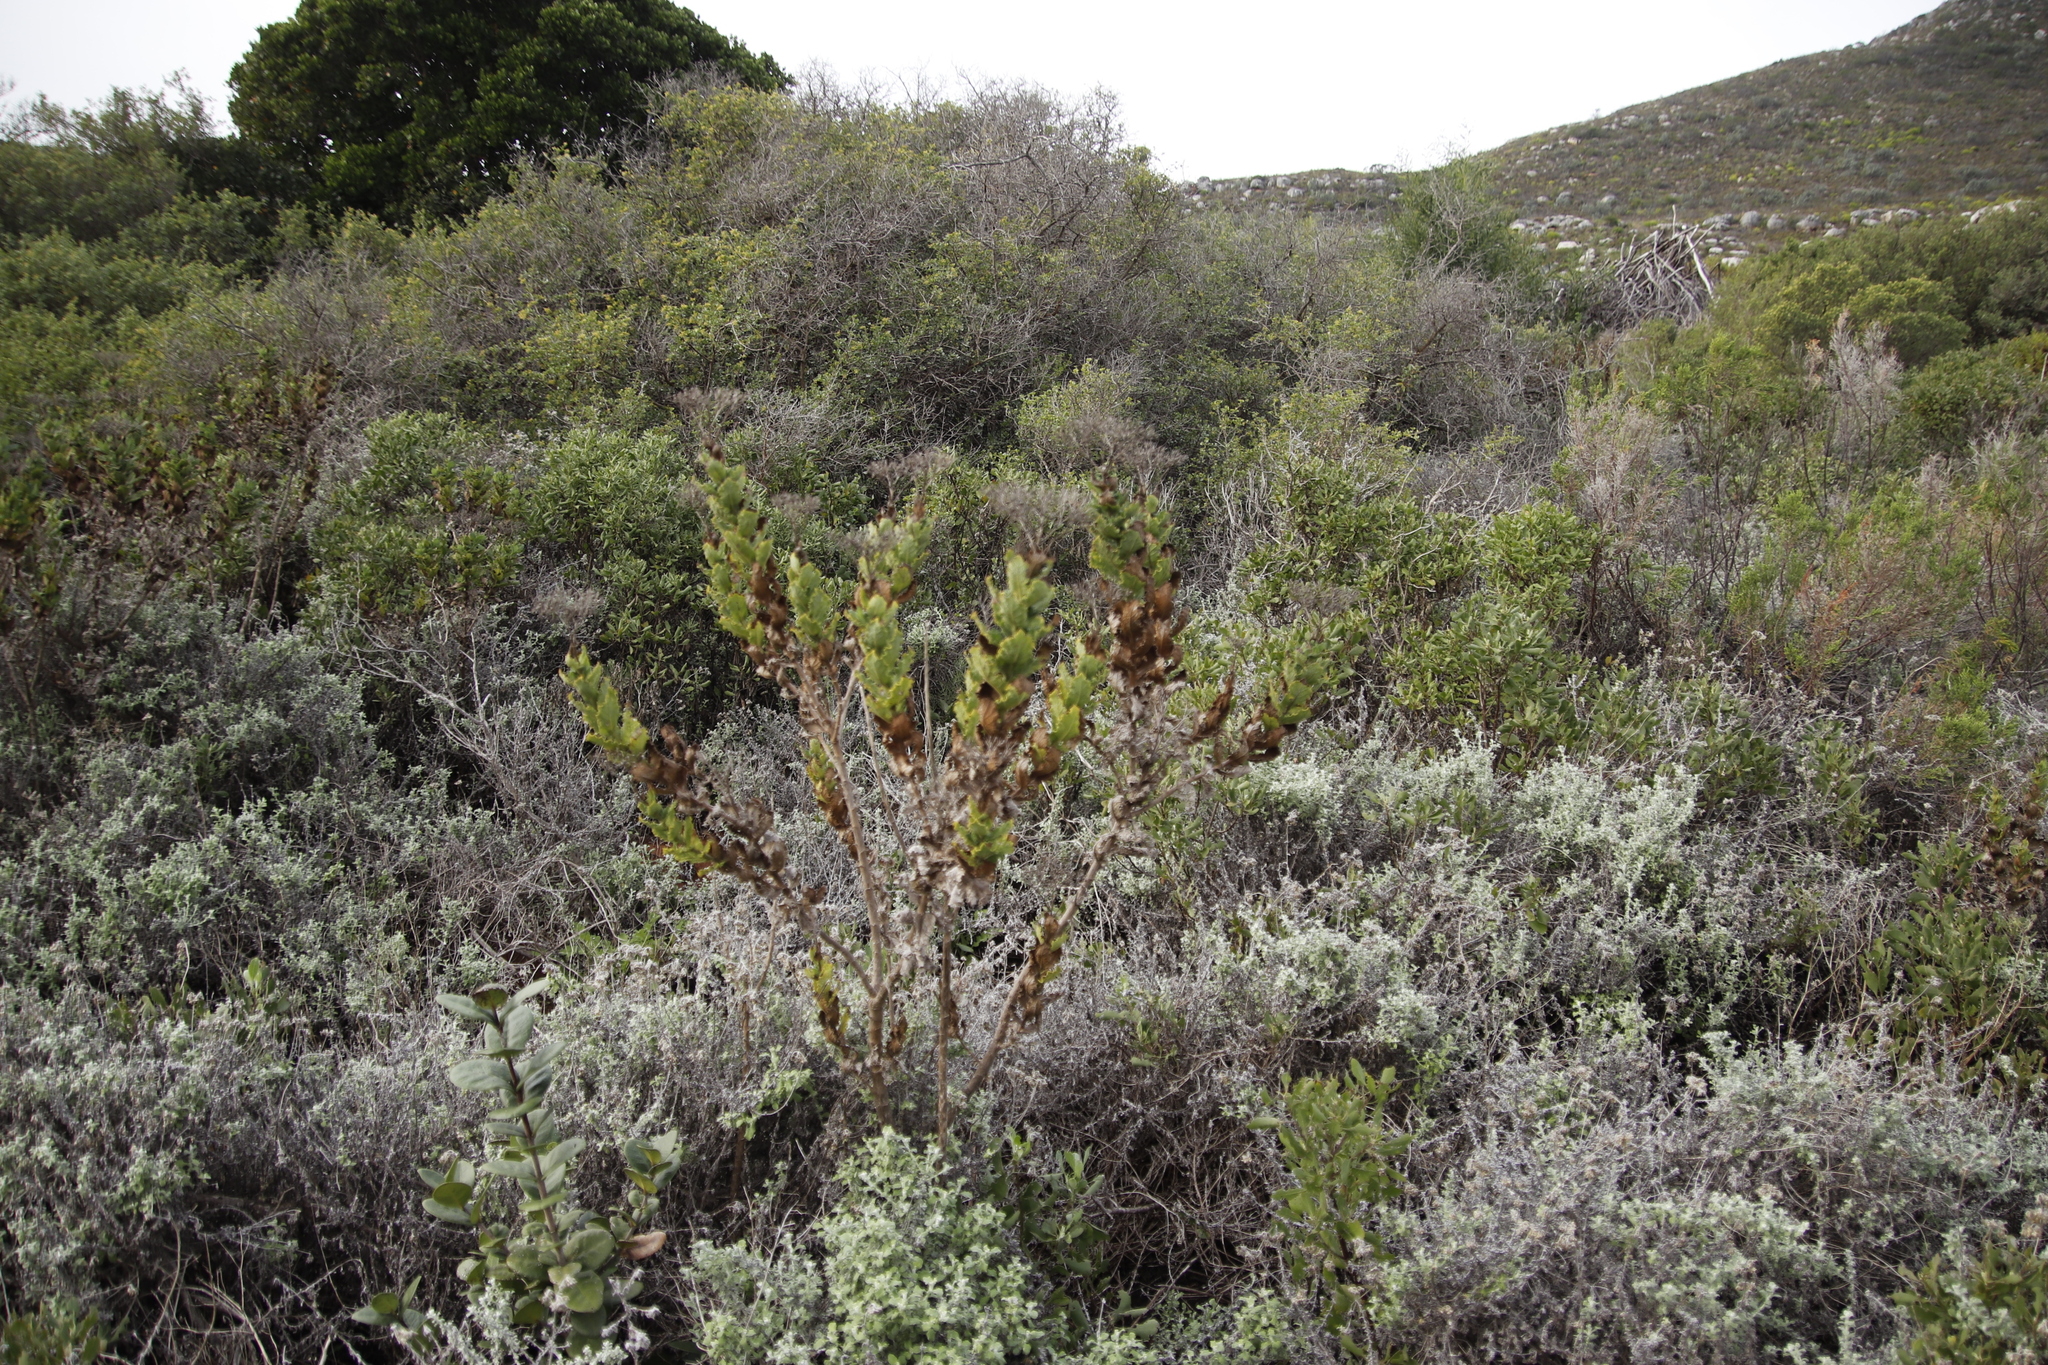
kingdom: Plantae
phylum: Tracheophyta
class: Magnoliopsida
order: Asterales
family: Asteraceae
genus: Senecio
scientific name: Senecio rigidus
